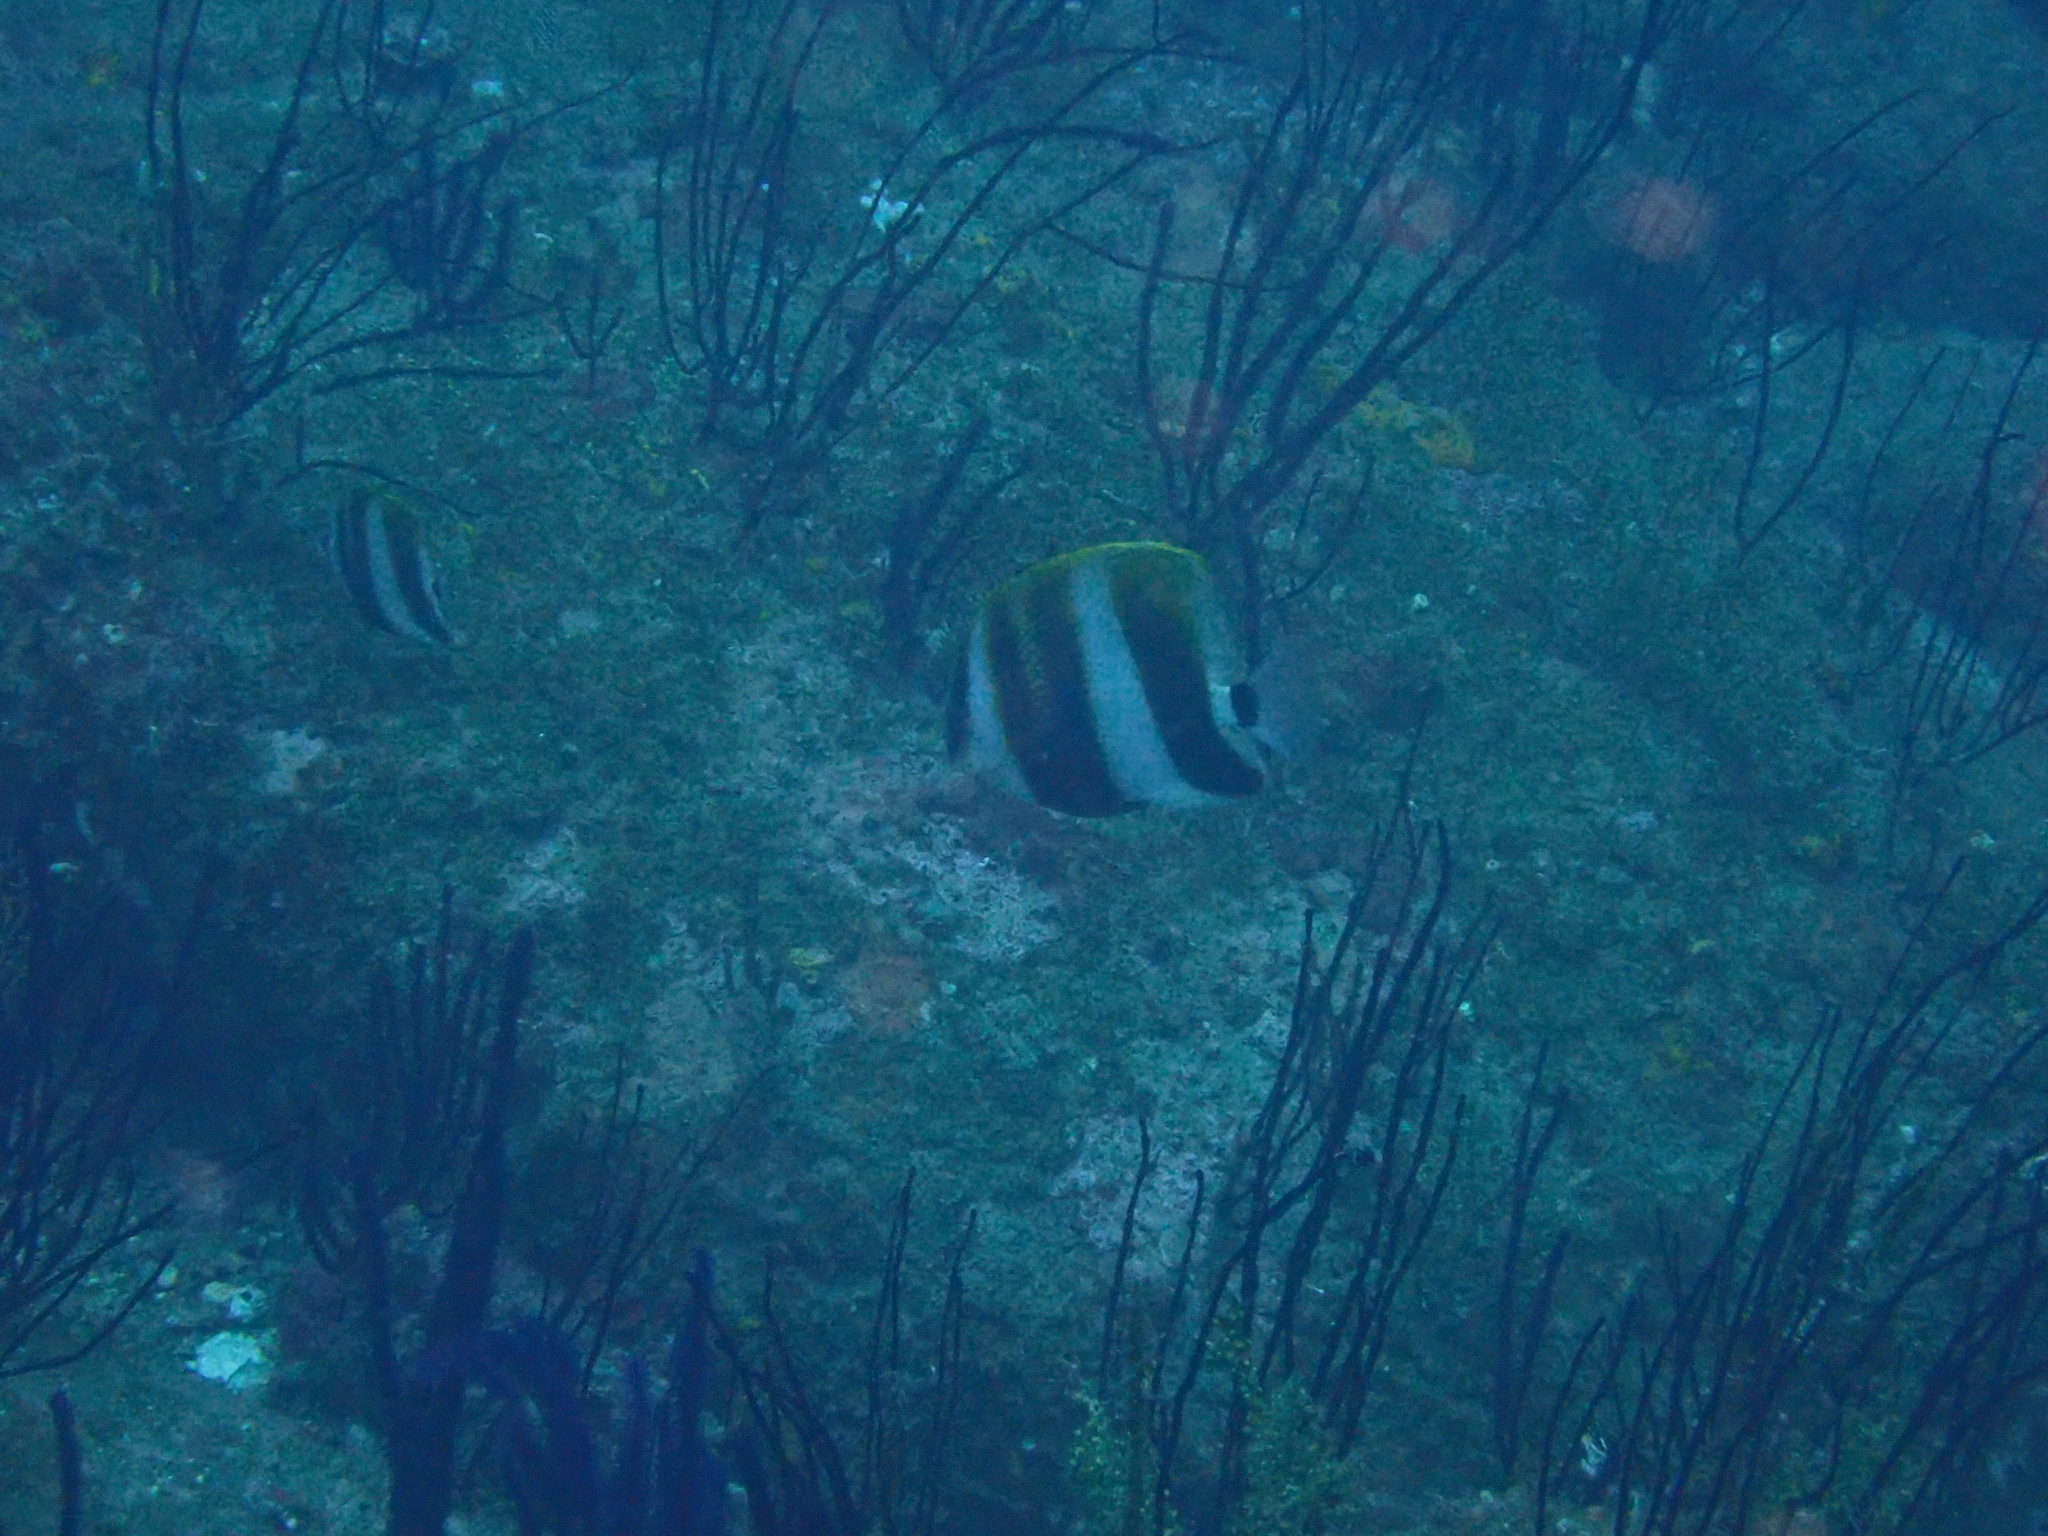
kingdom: Animalia
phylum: Chordata
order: Perciformes
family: Chaetodontidae
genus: Coradion
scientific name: Coradion altivelis
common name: High-fin butterflyfish
